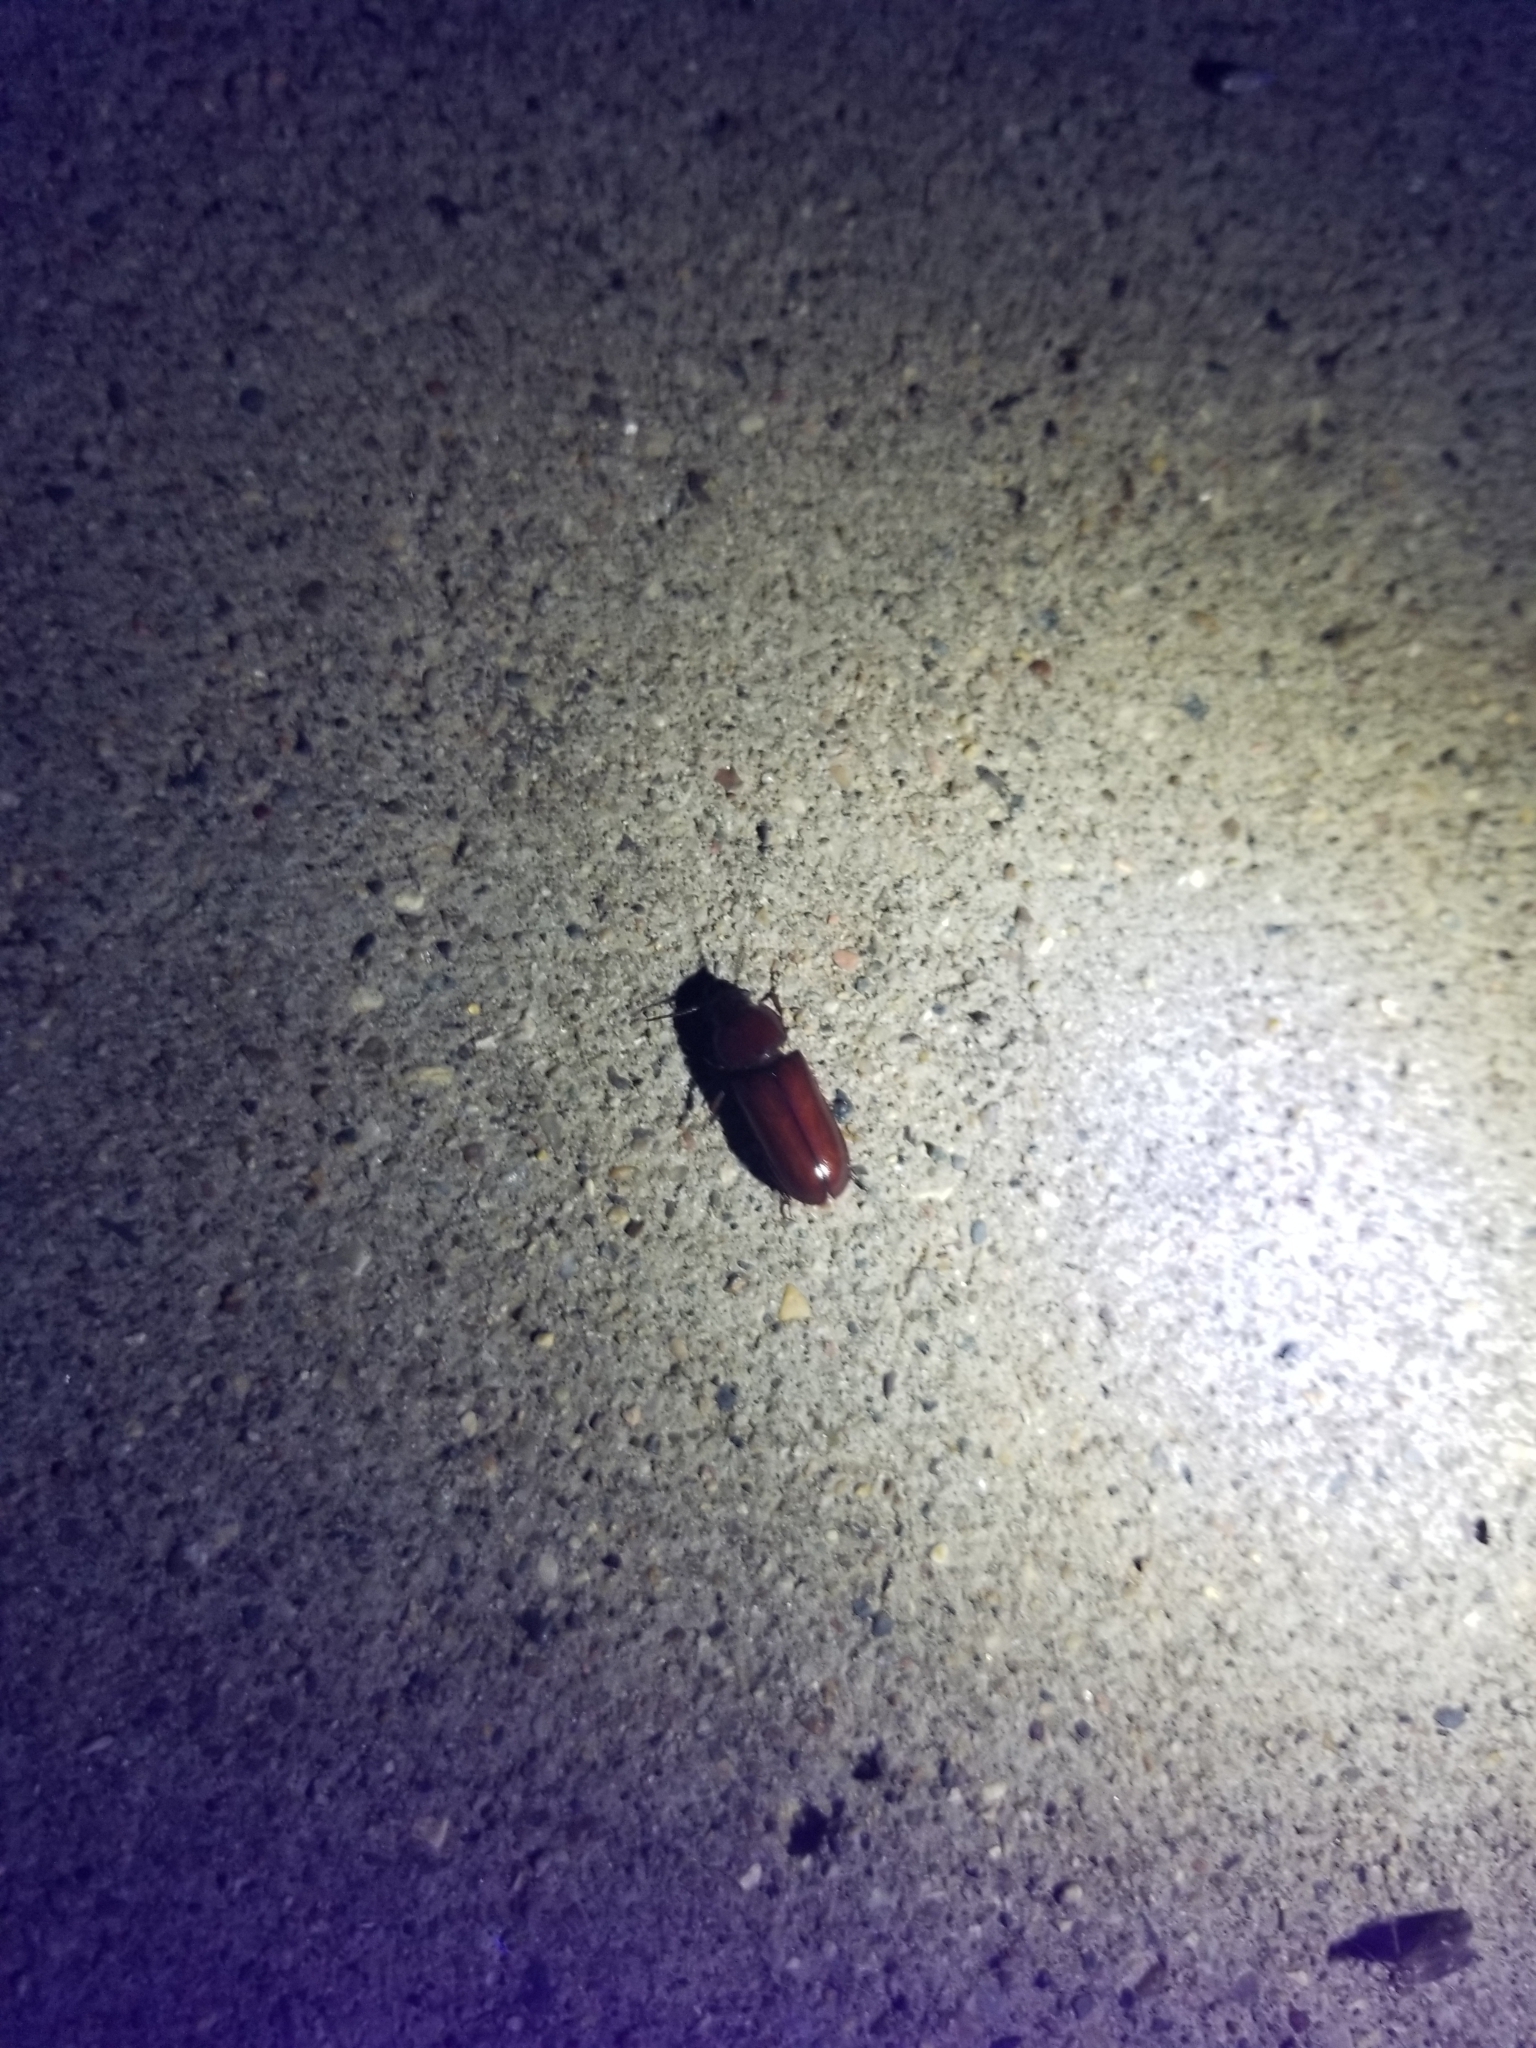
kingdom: Animalia
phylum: Arthropoda
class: Insecta
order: Coleoptera
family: Cerambycidae
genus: Neandra
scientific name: Neandra brunnea
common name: Pole borer
